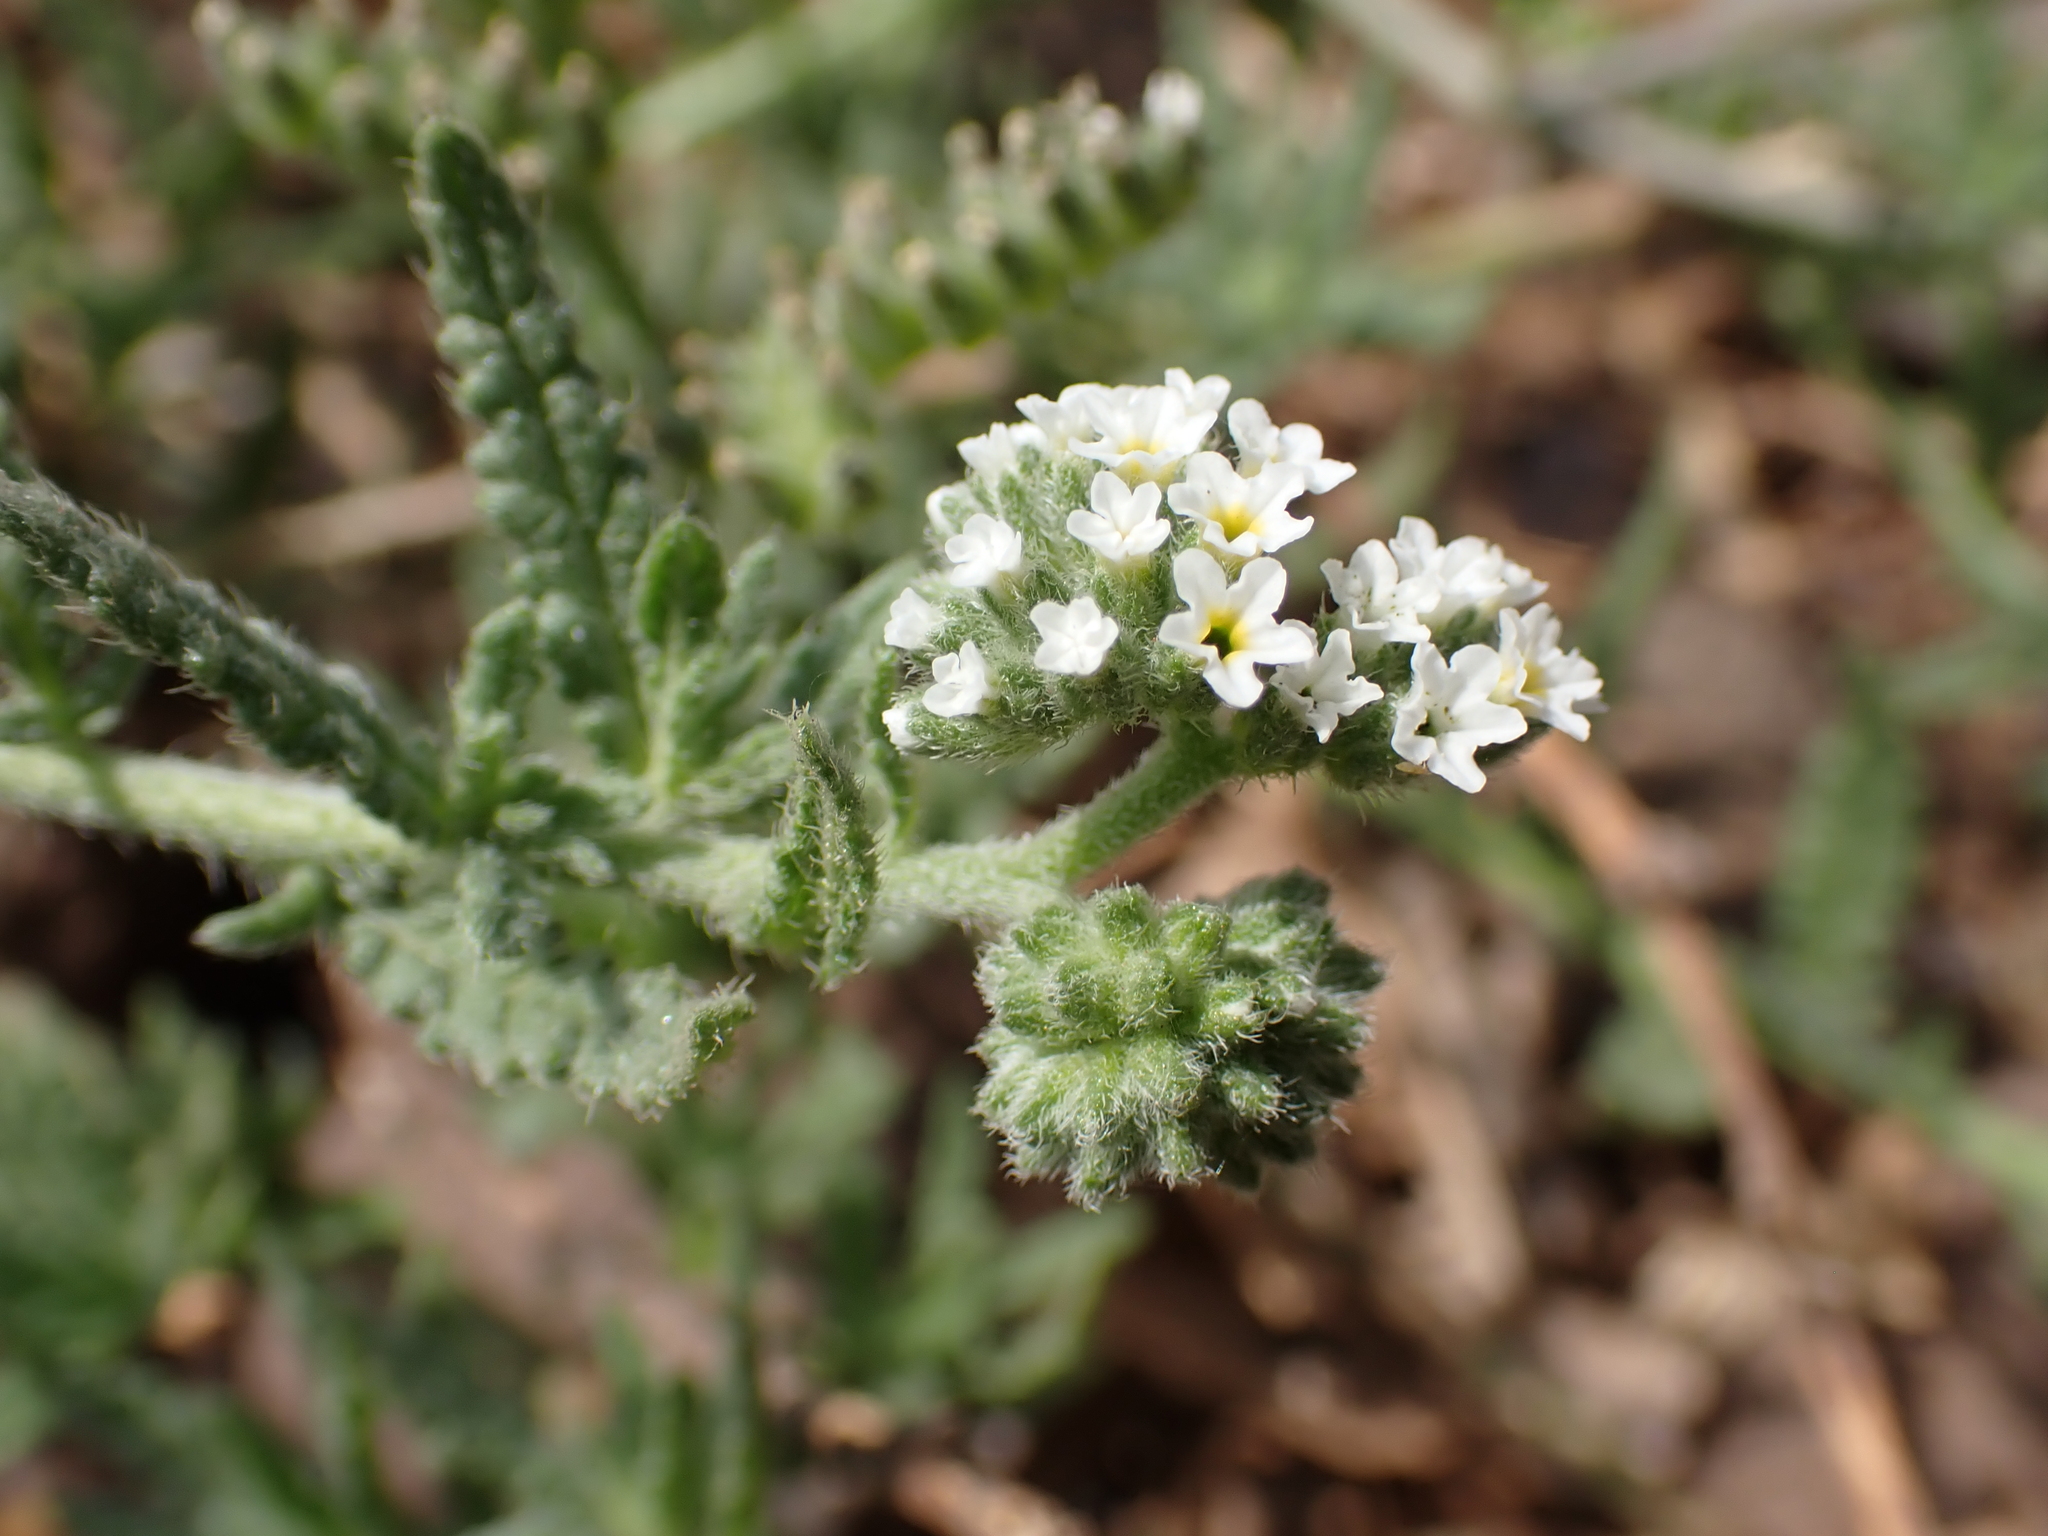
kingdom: Plantae
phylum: Tracheophyta
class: Magnoliopsida
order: Boraginales
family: Heliotropiaceae
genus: Heliotropium
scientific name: Heliotropium ramosissimum
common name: Wavy heliotrope
